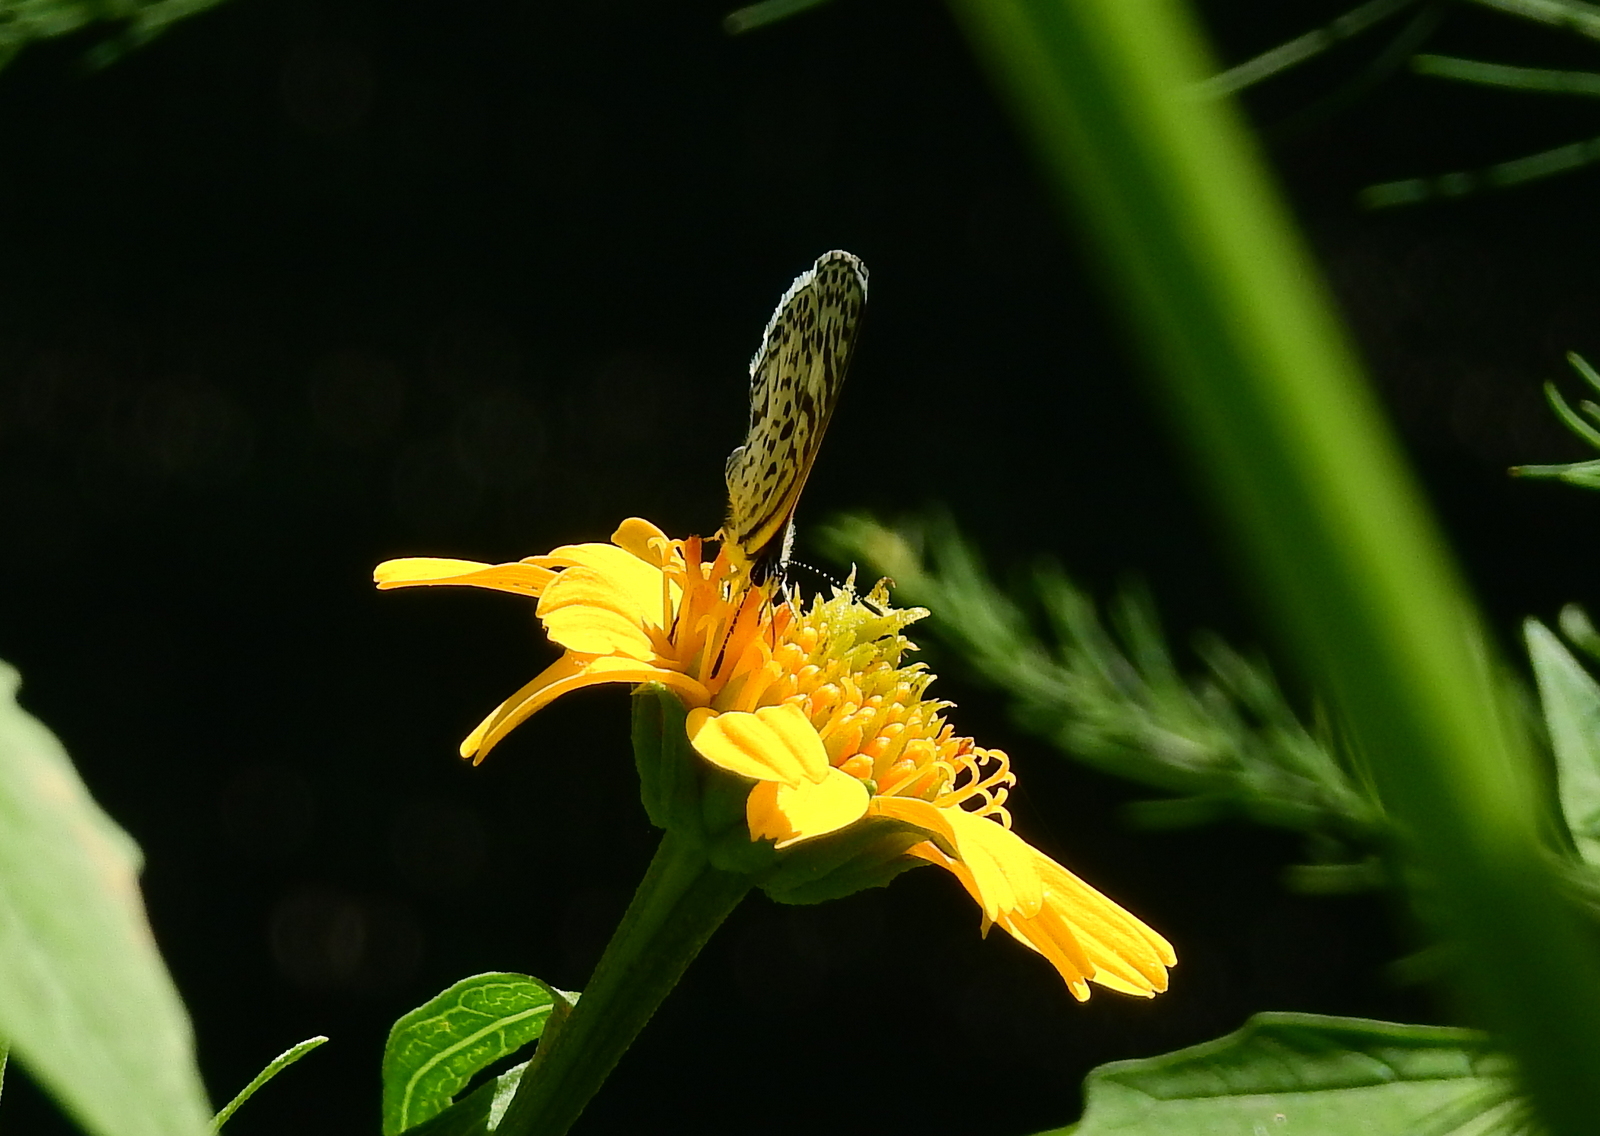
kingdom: Animalia
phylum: Arthropoda
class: Insecta
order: Lepidoptera
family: Lycaenidae
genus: Leptotes
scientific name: Leptotes cassius
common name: Cassius blue
